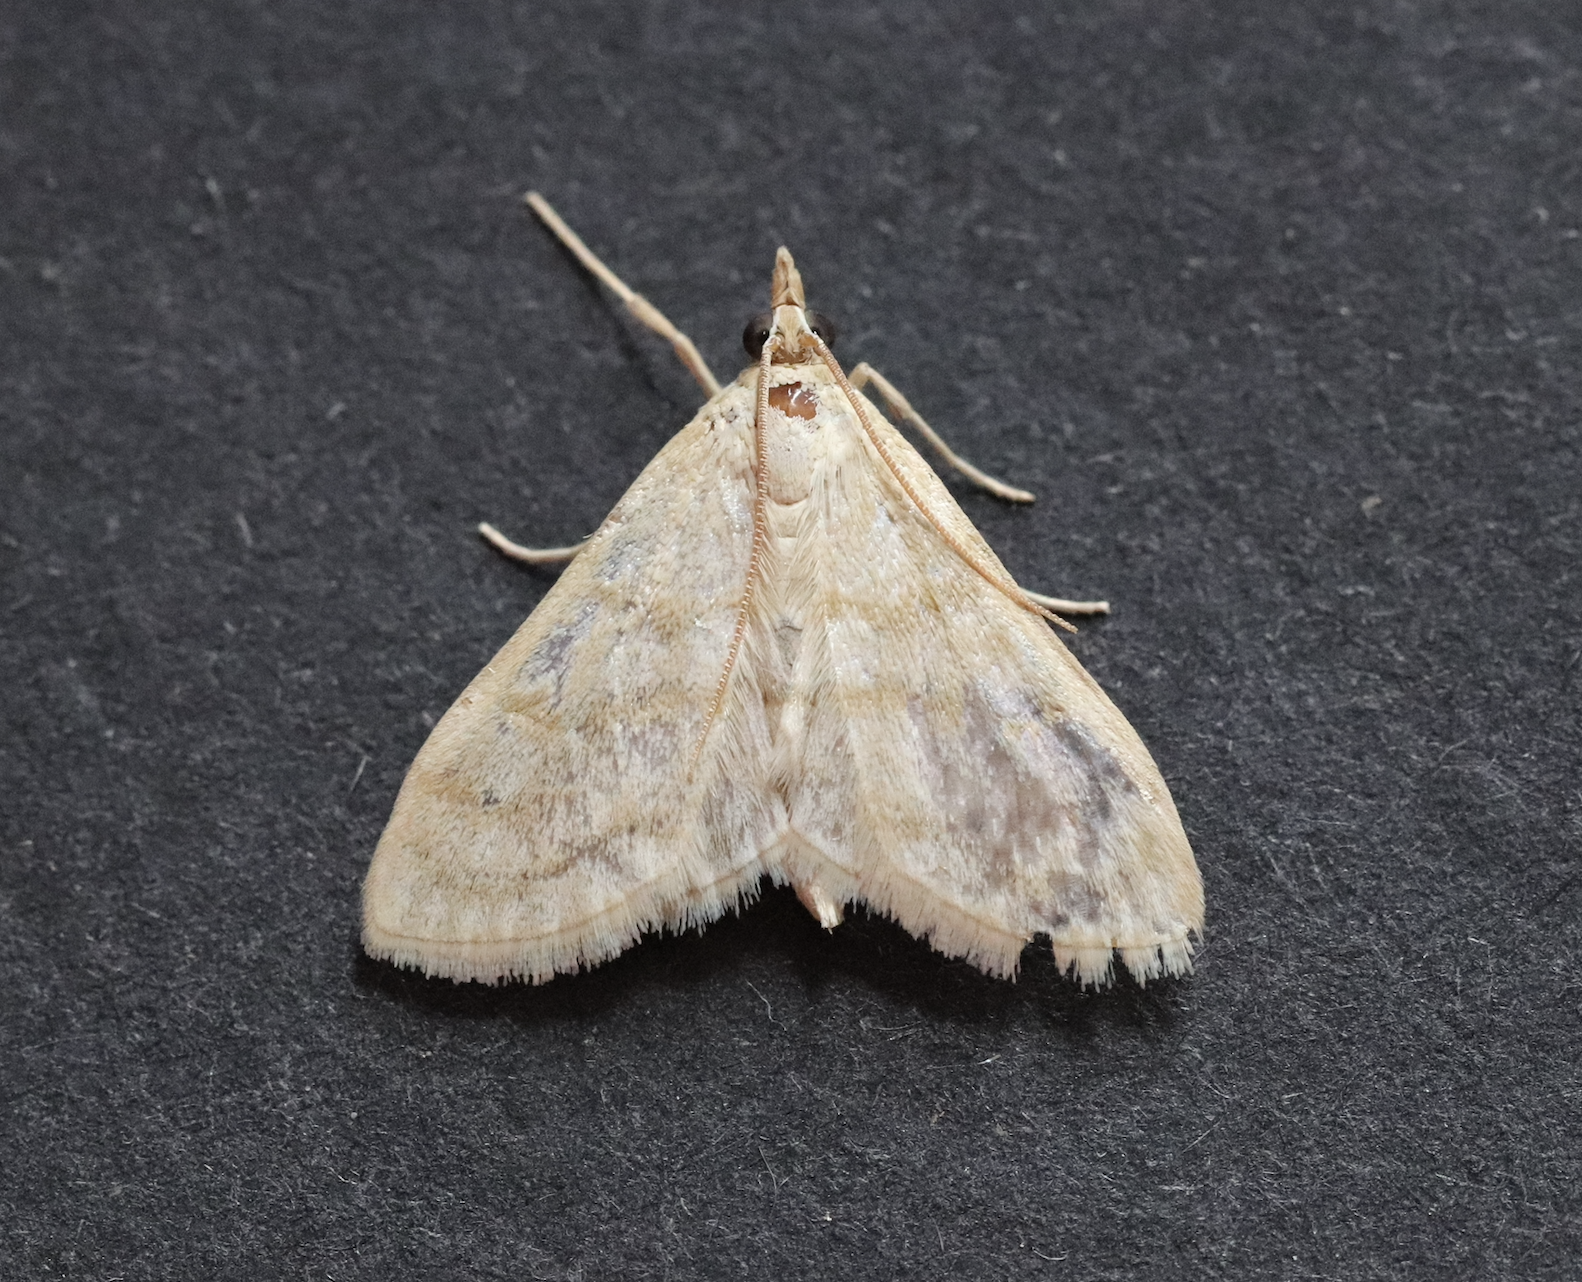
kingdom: Animalia
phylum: Arthropoda
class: Insecta
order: Lepidoptera
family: Crambidae
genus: Paracorsia
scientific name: Paracorsia repandalis
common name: Mullein moth
